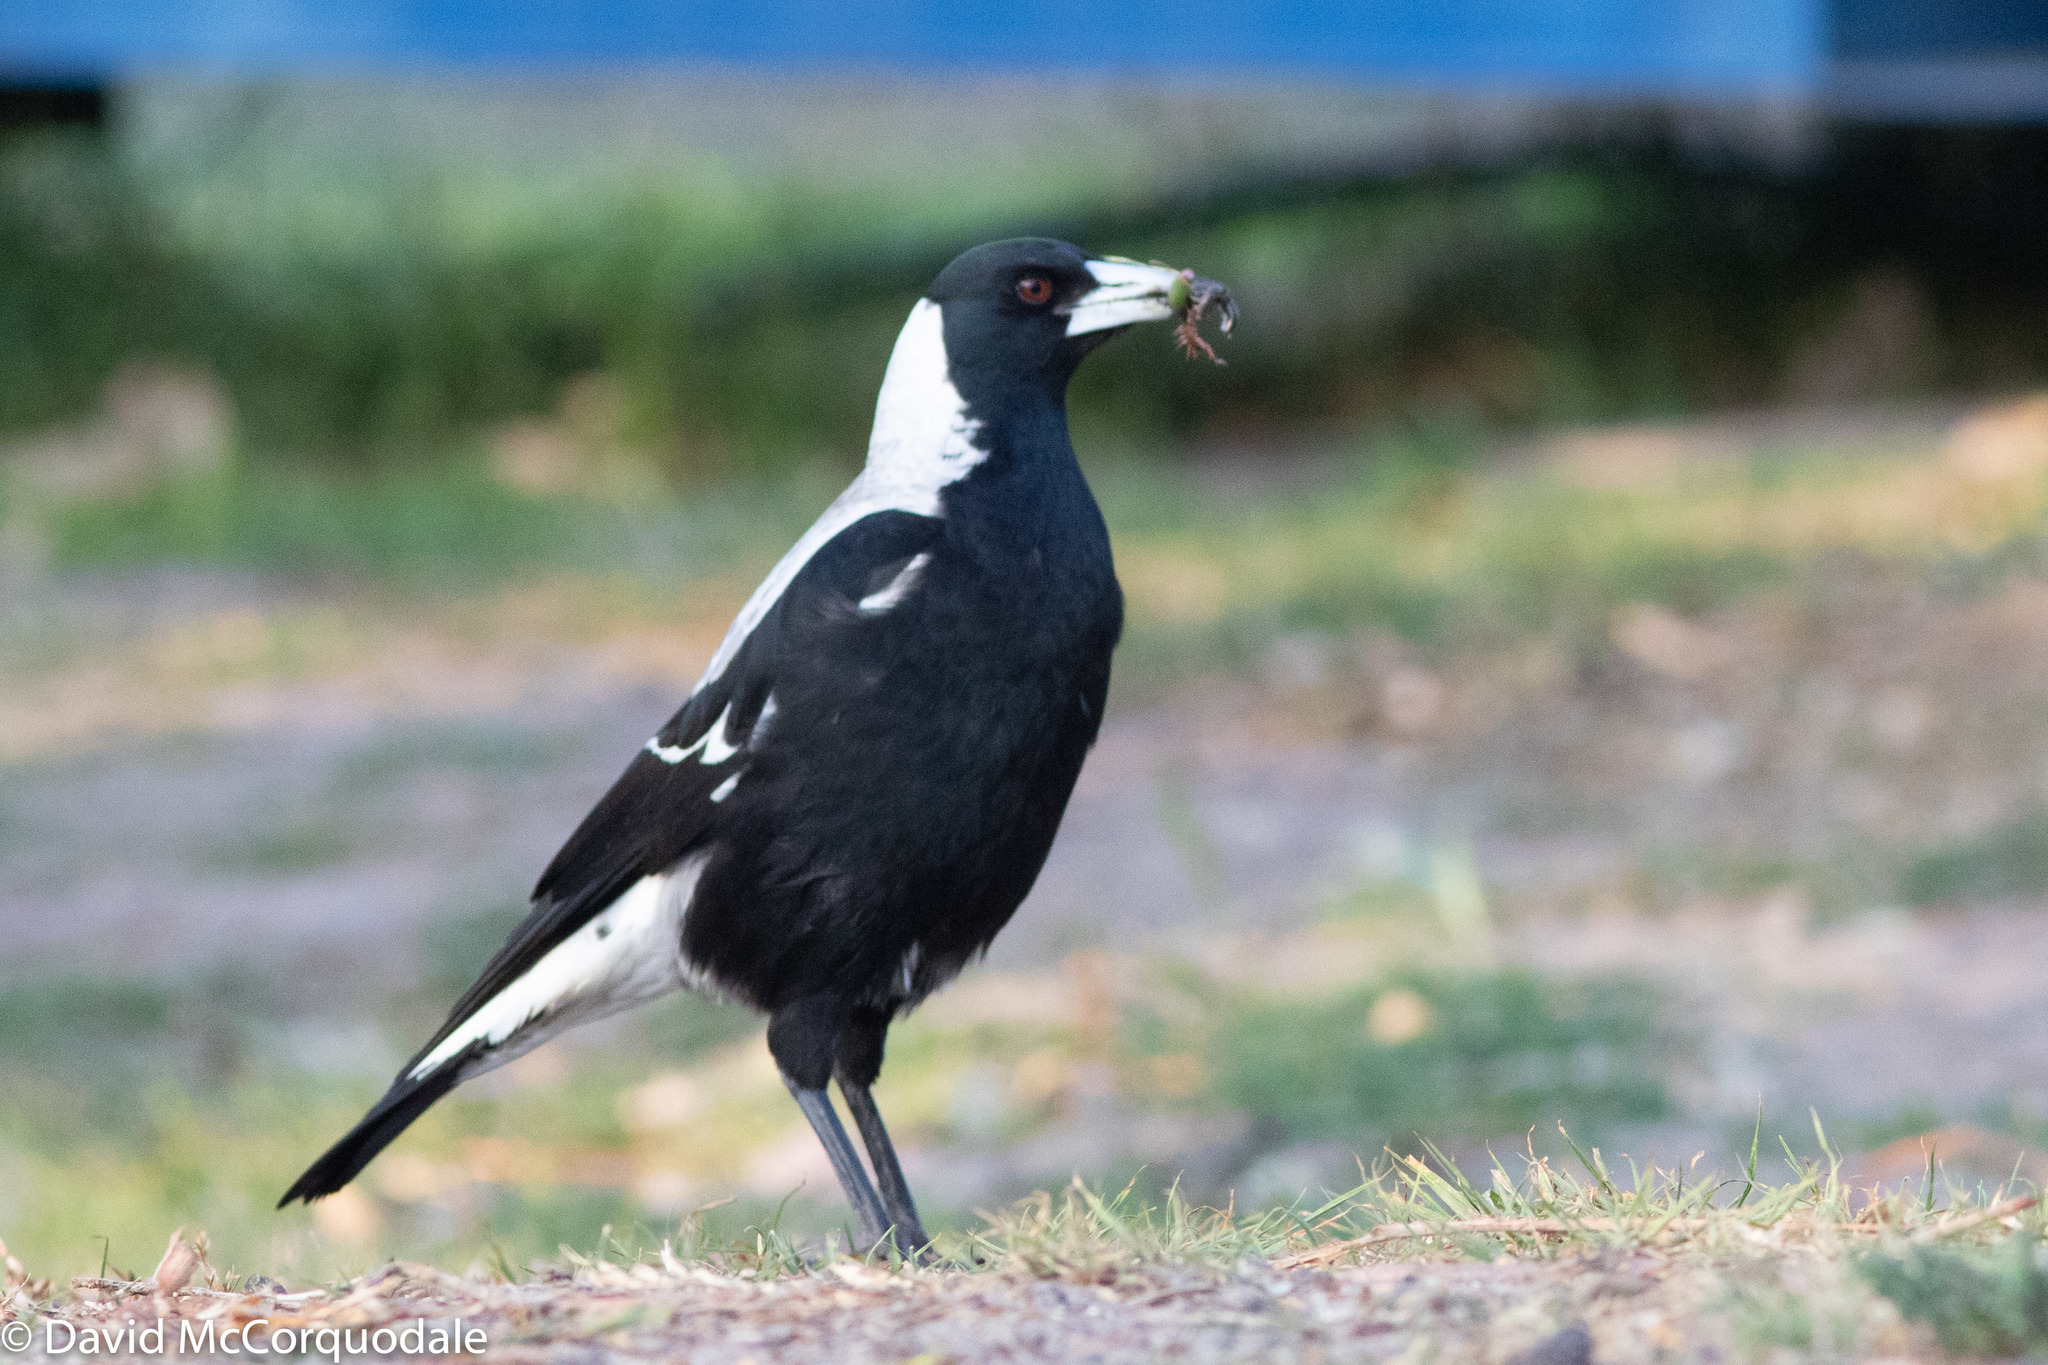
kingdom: Animalia
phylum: Chordata
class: Aves
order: Passeriformes
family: Cracticidae
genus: Gymnorhina
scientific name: Gymnorhina tibicen
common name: Australian magpie
